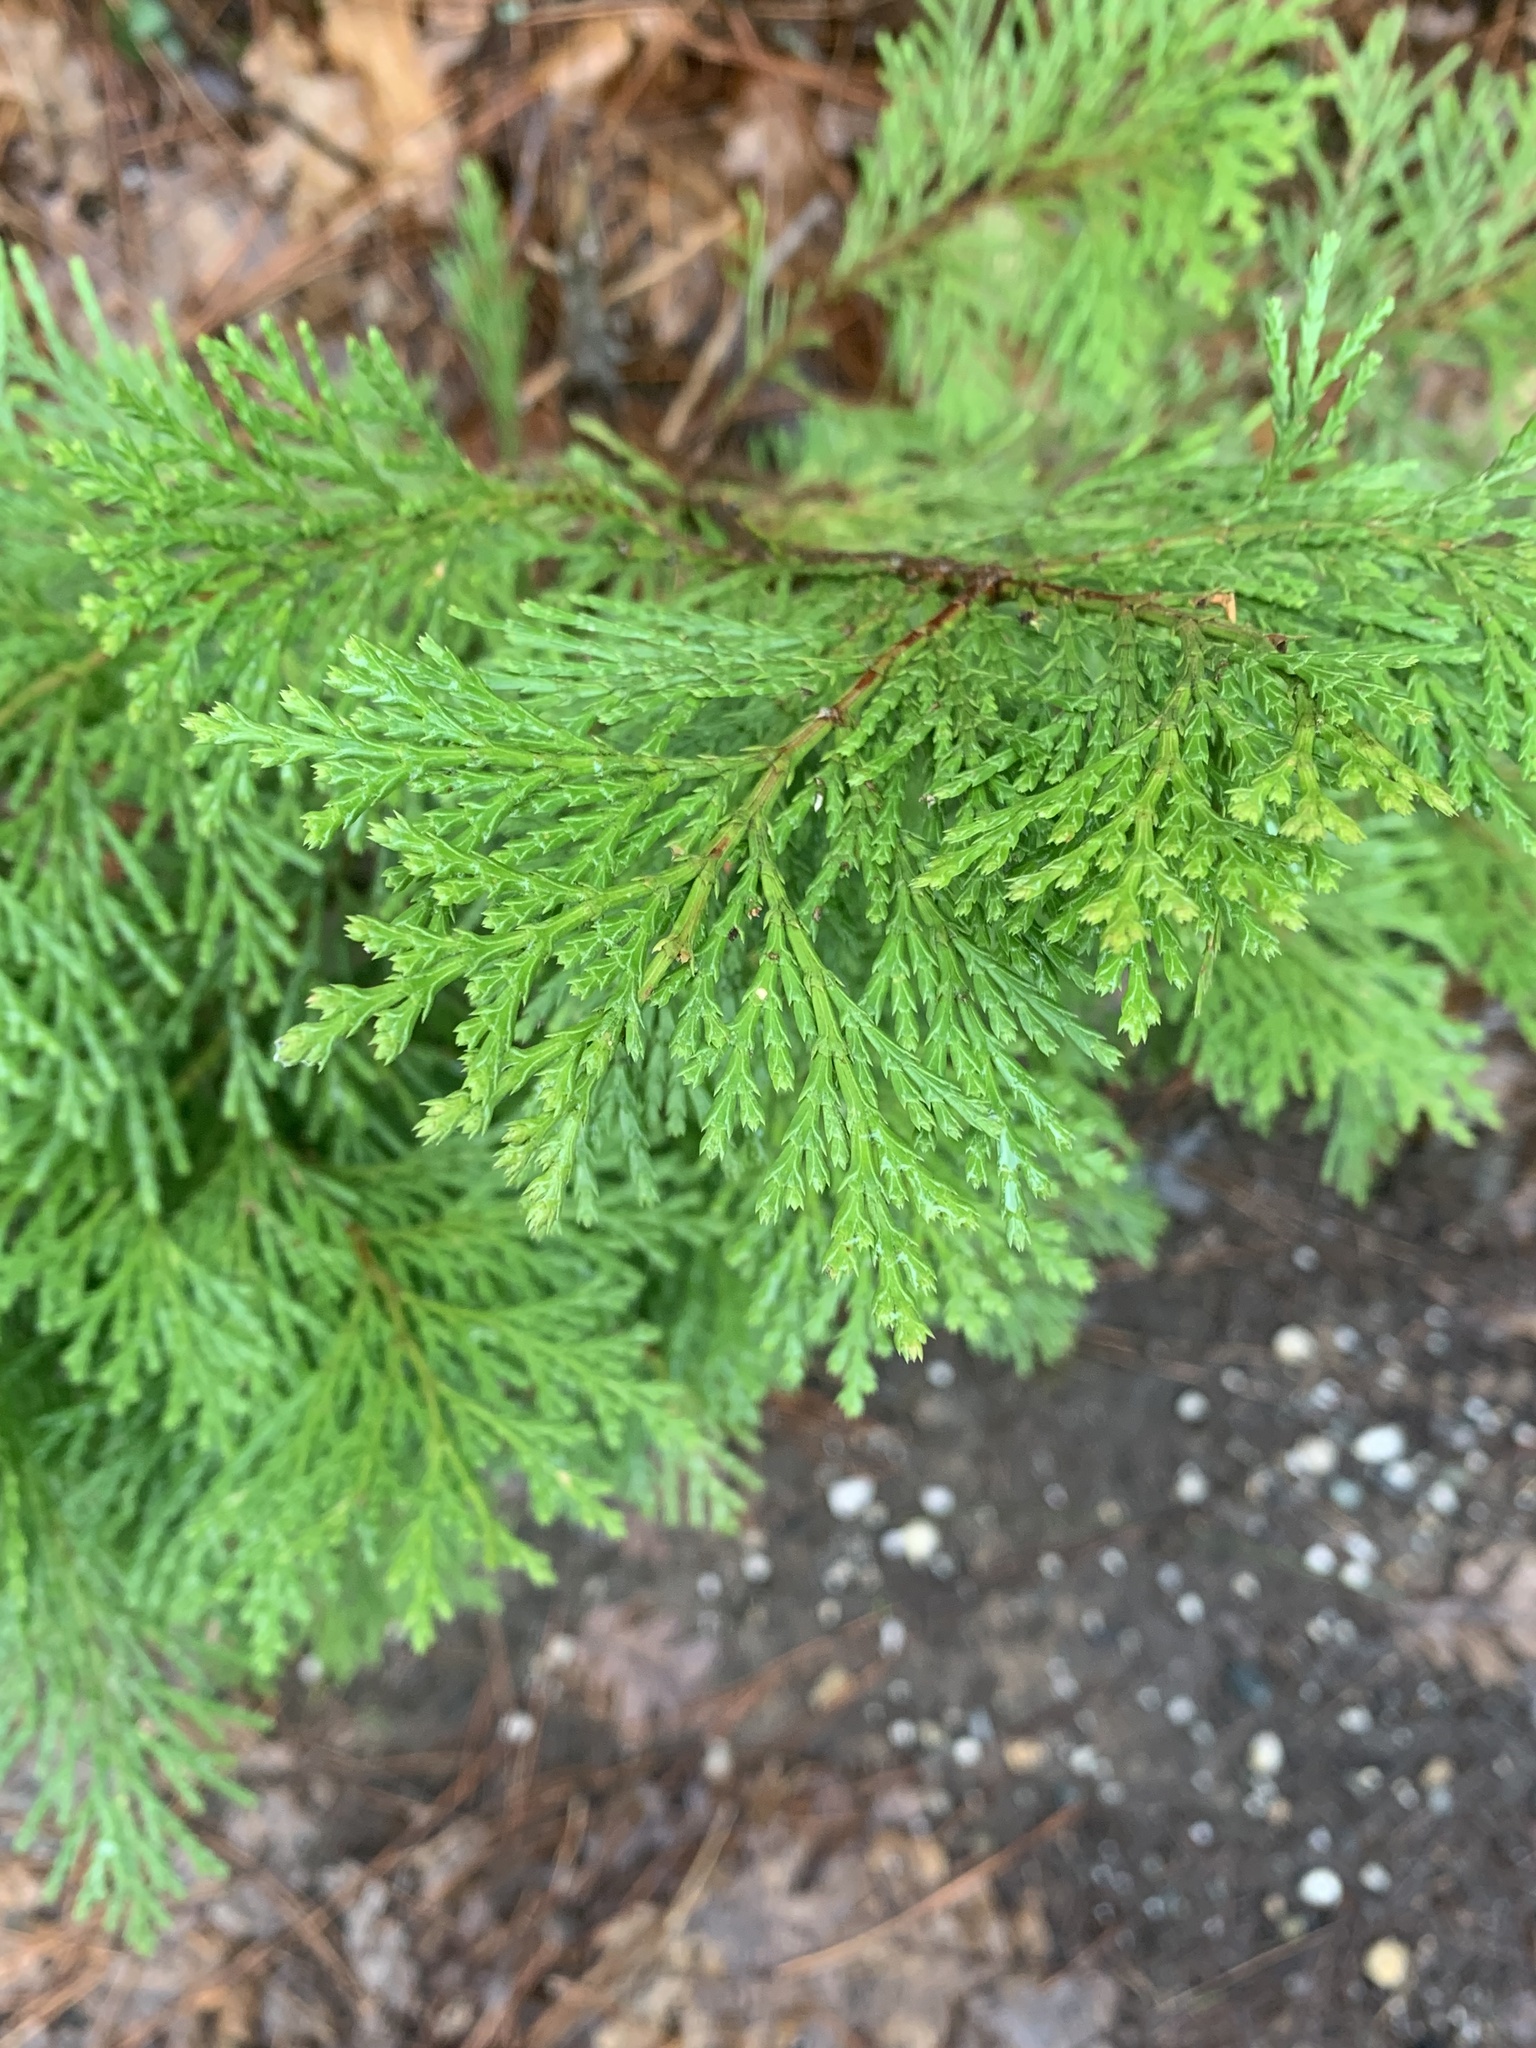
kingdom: Plantae
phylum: Tracheophyta
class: Pinopsida
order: Pinales
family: Cupressaceae
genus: Calocedrus
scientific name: Calocedrus decurrens
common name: Californian incense-cedar
